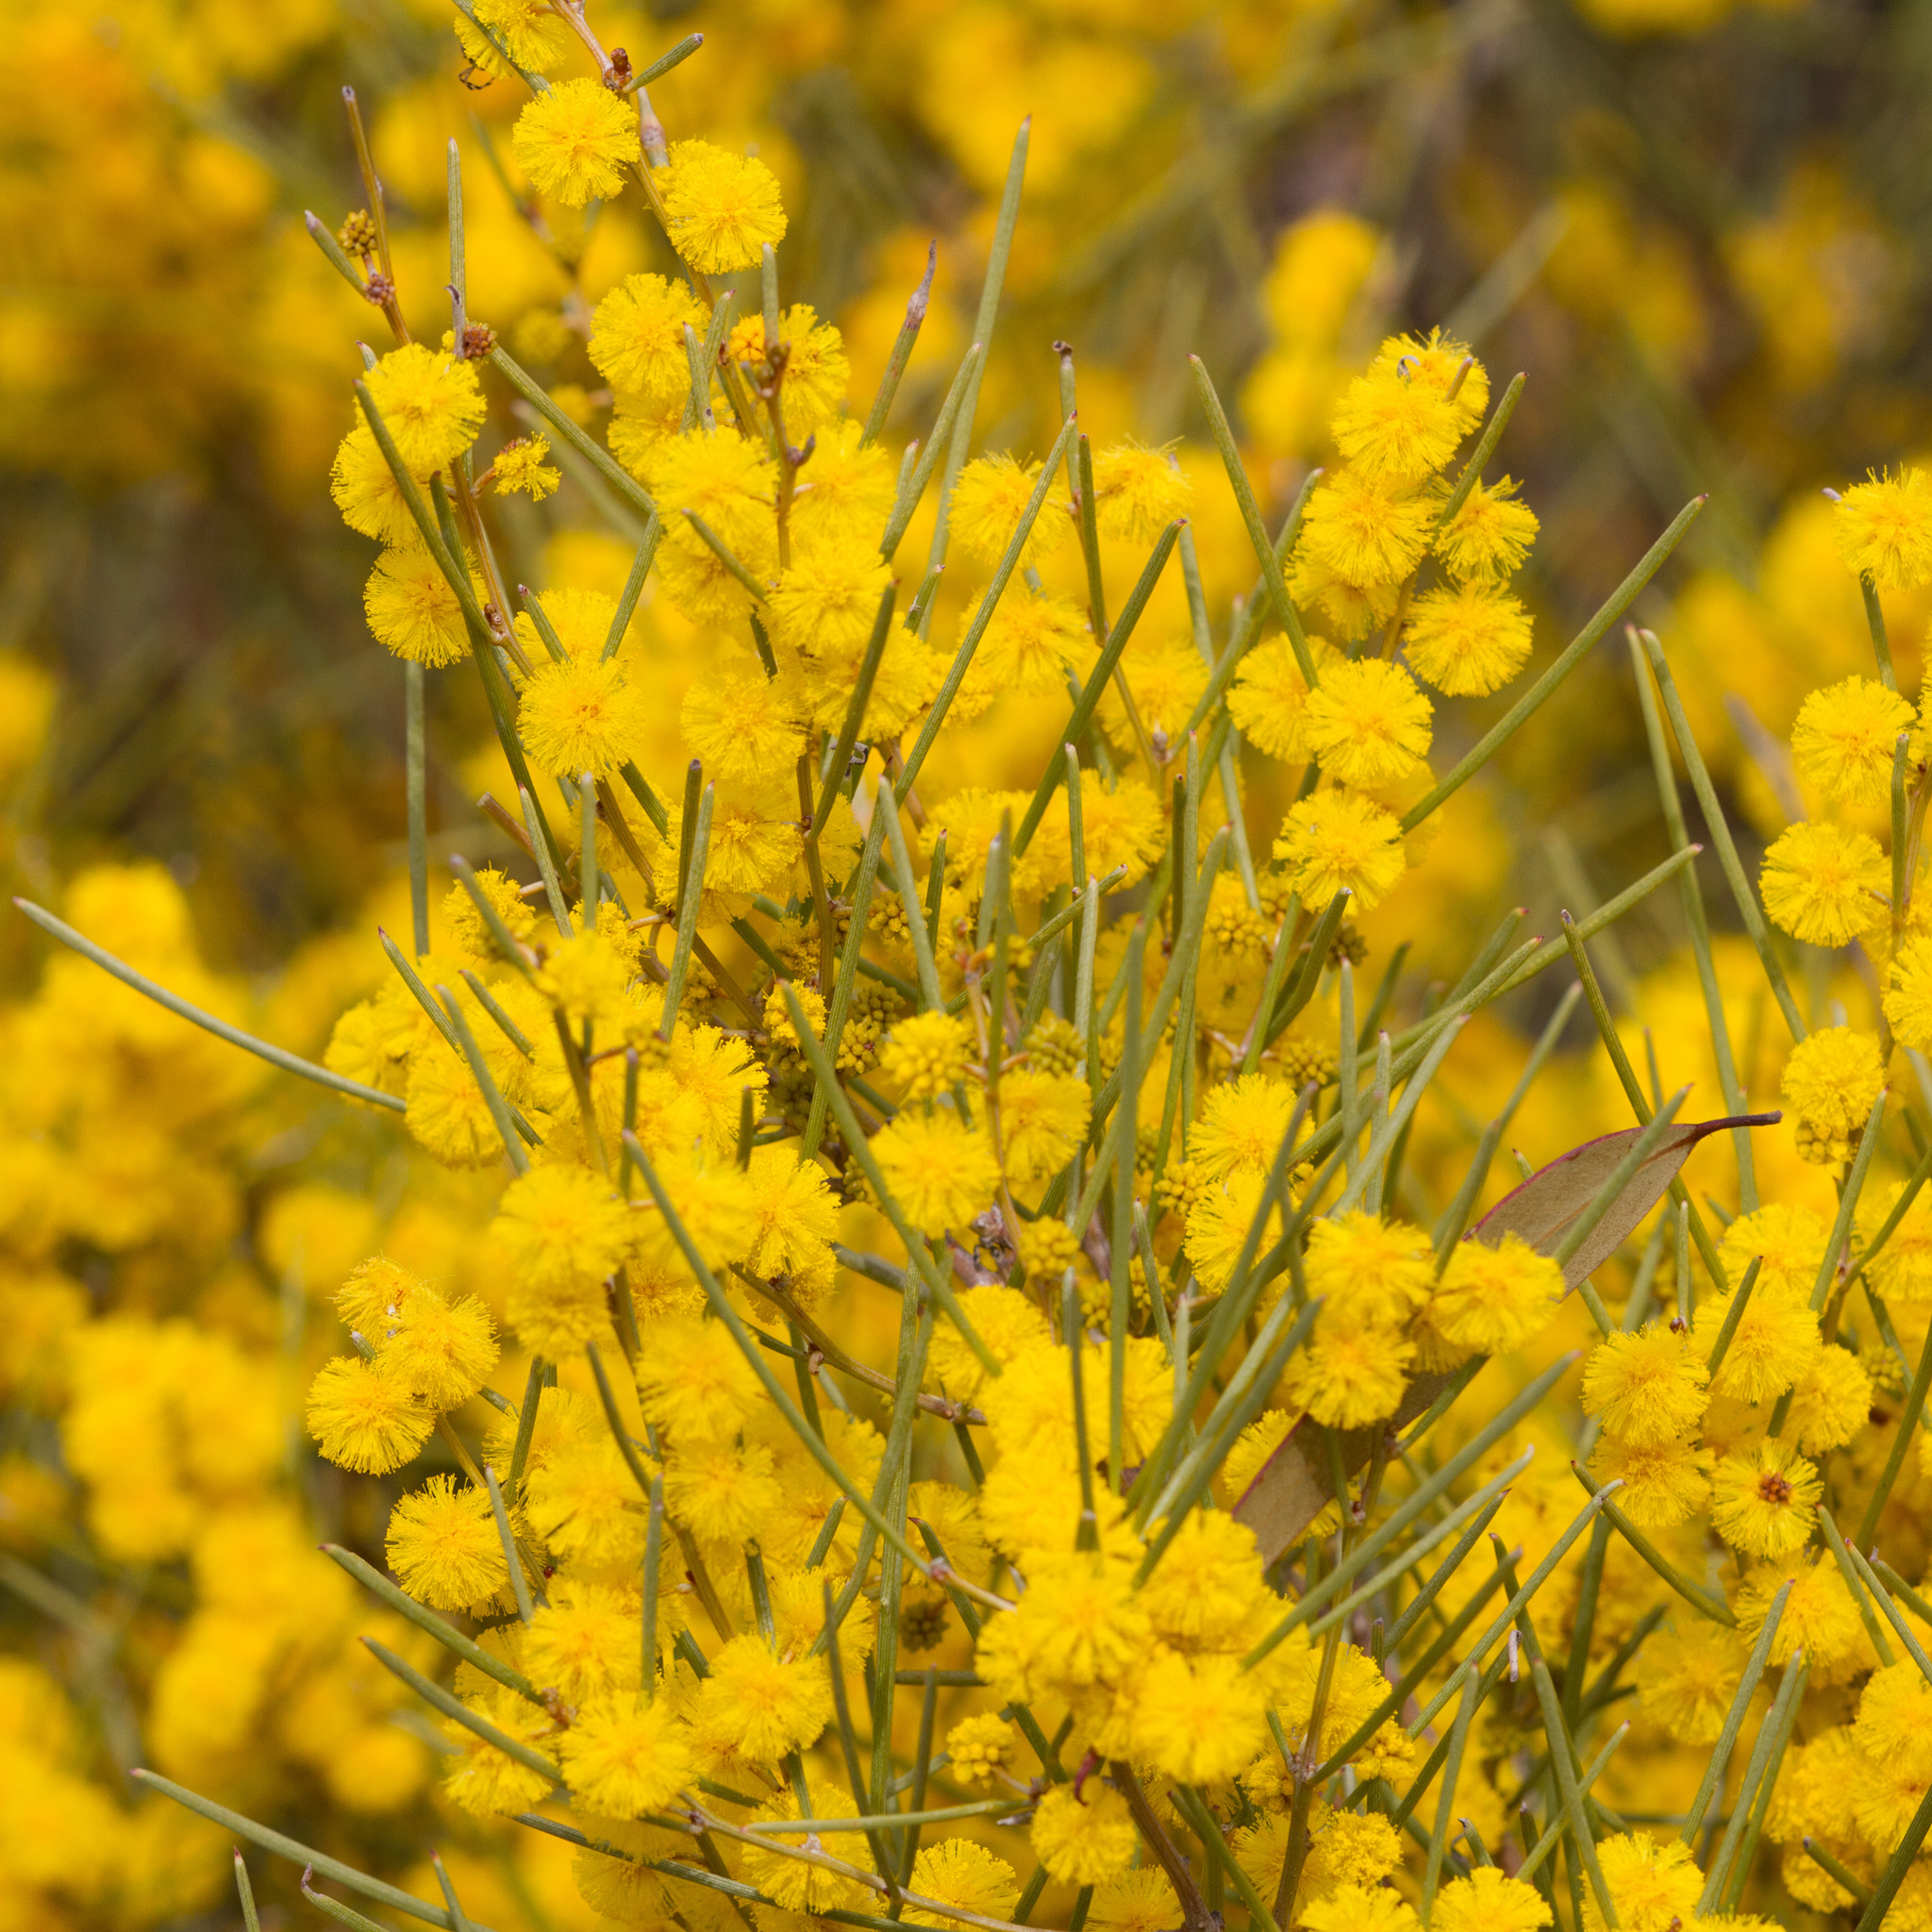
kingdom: Plantae
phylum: Tracheophyta
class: Magnoliopsida
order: Fabales
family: Fabaceae
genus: Acacia
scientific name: Acacia rigens
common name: Nealie
